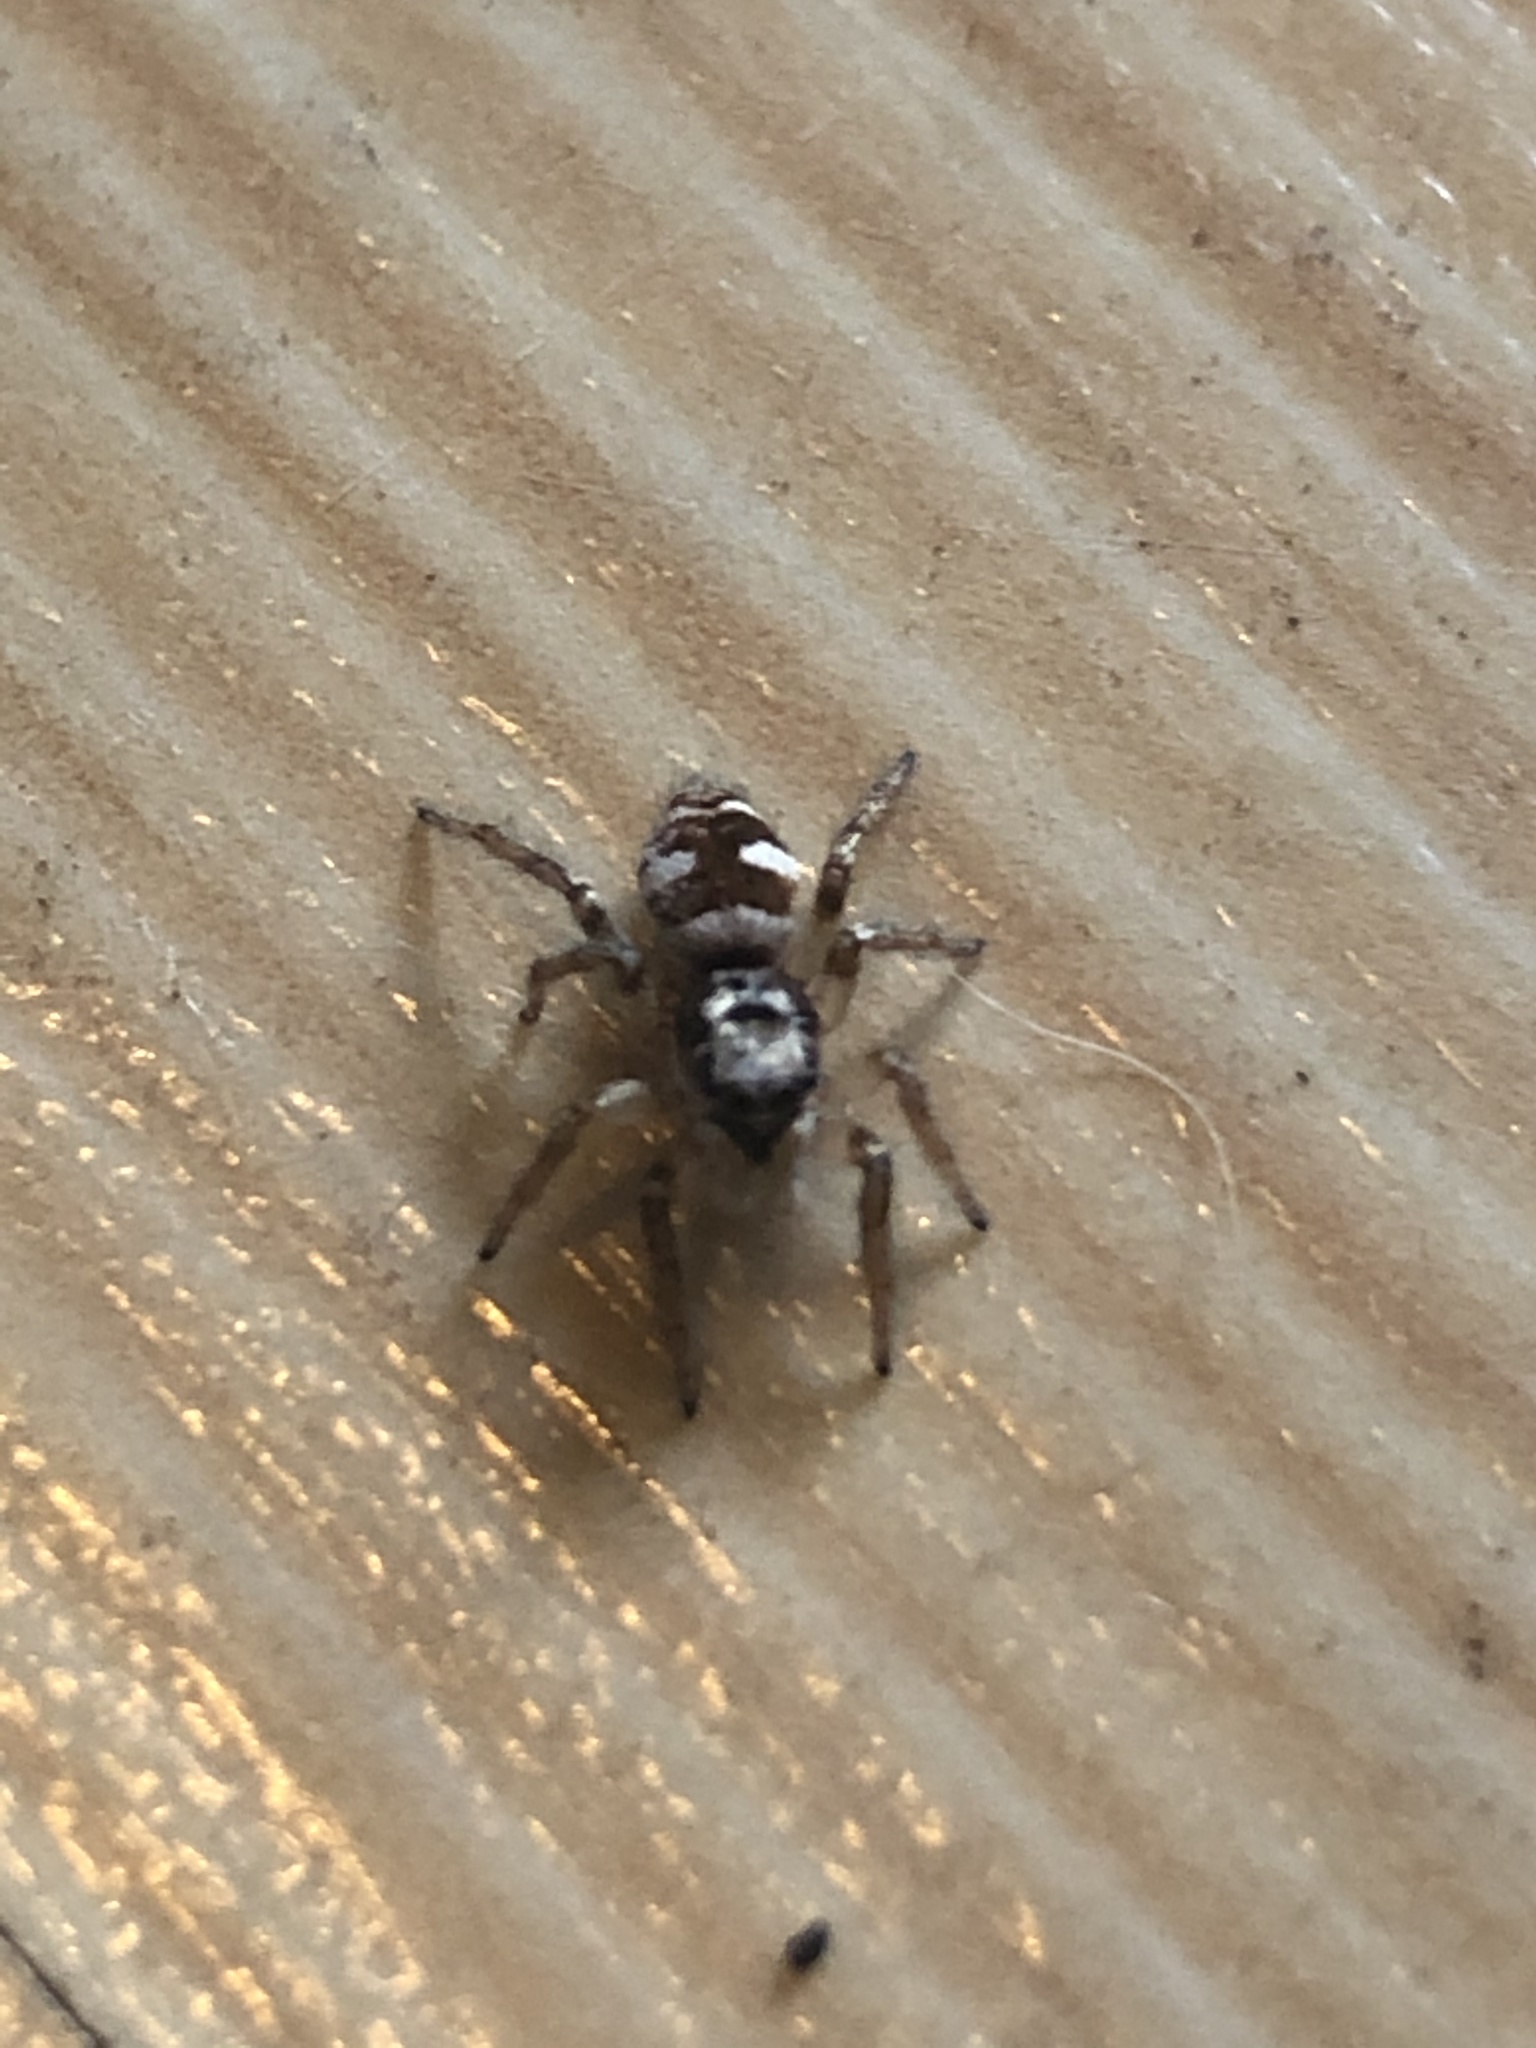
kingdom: Animalia
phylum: Arthropoda
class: Arachnida
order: Araneae
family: Salticidae
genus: Salticus
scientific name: Salticus scenicus
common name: Zebra jumper
